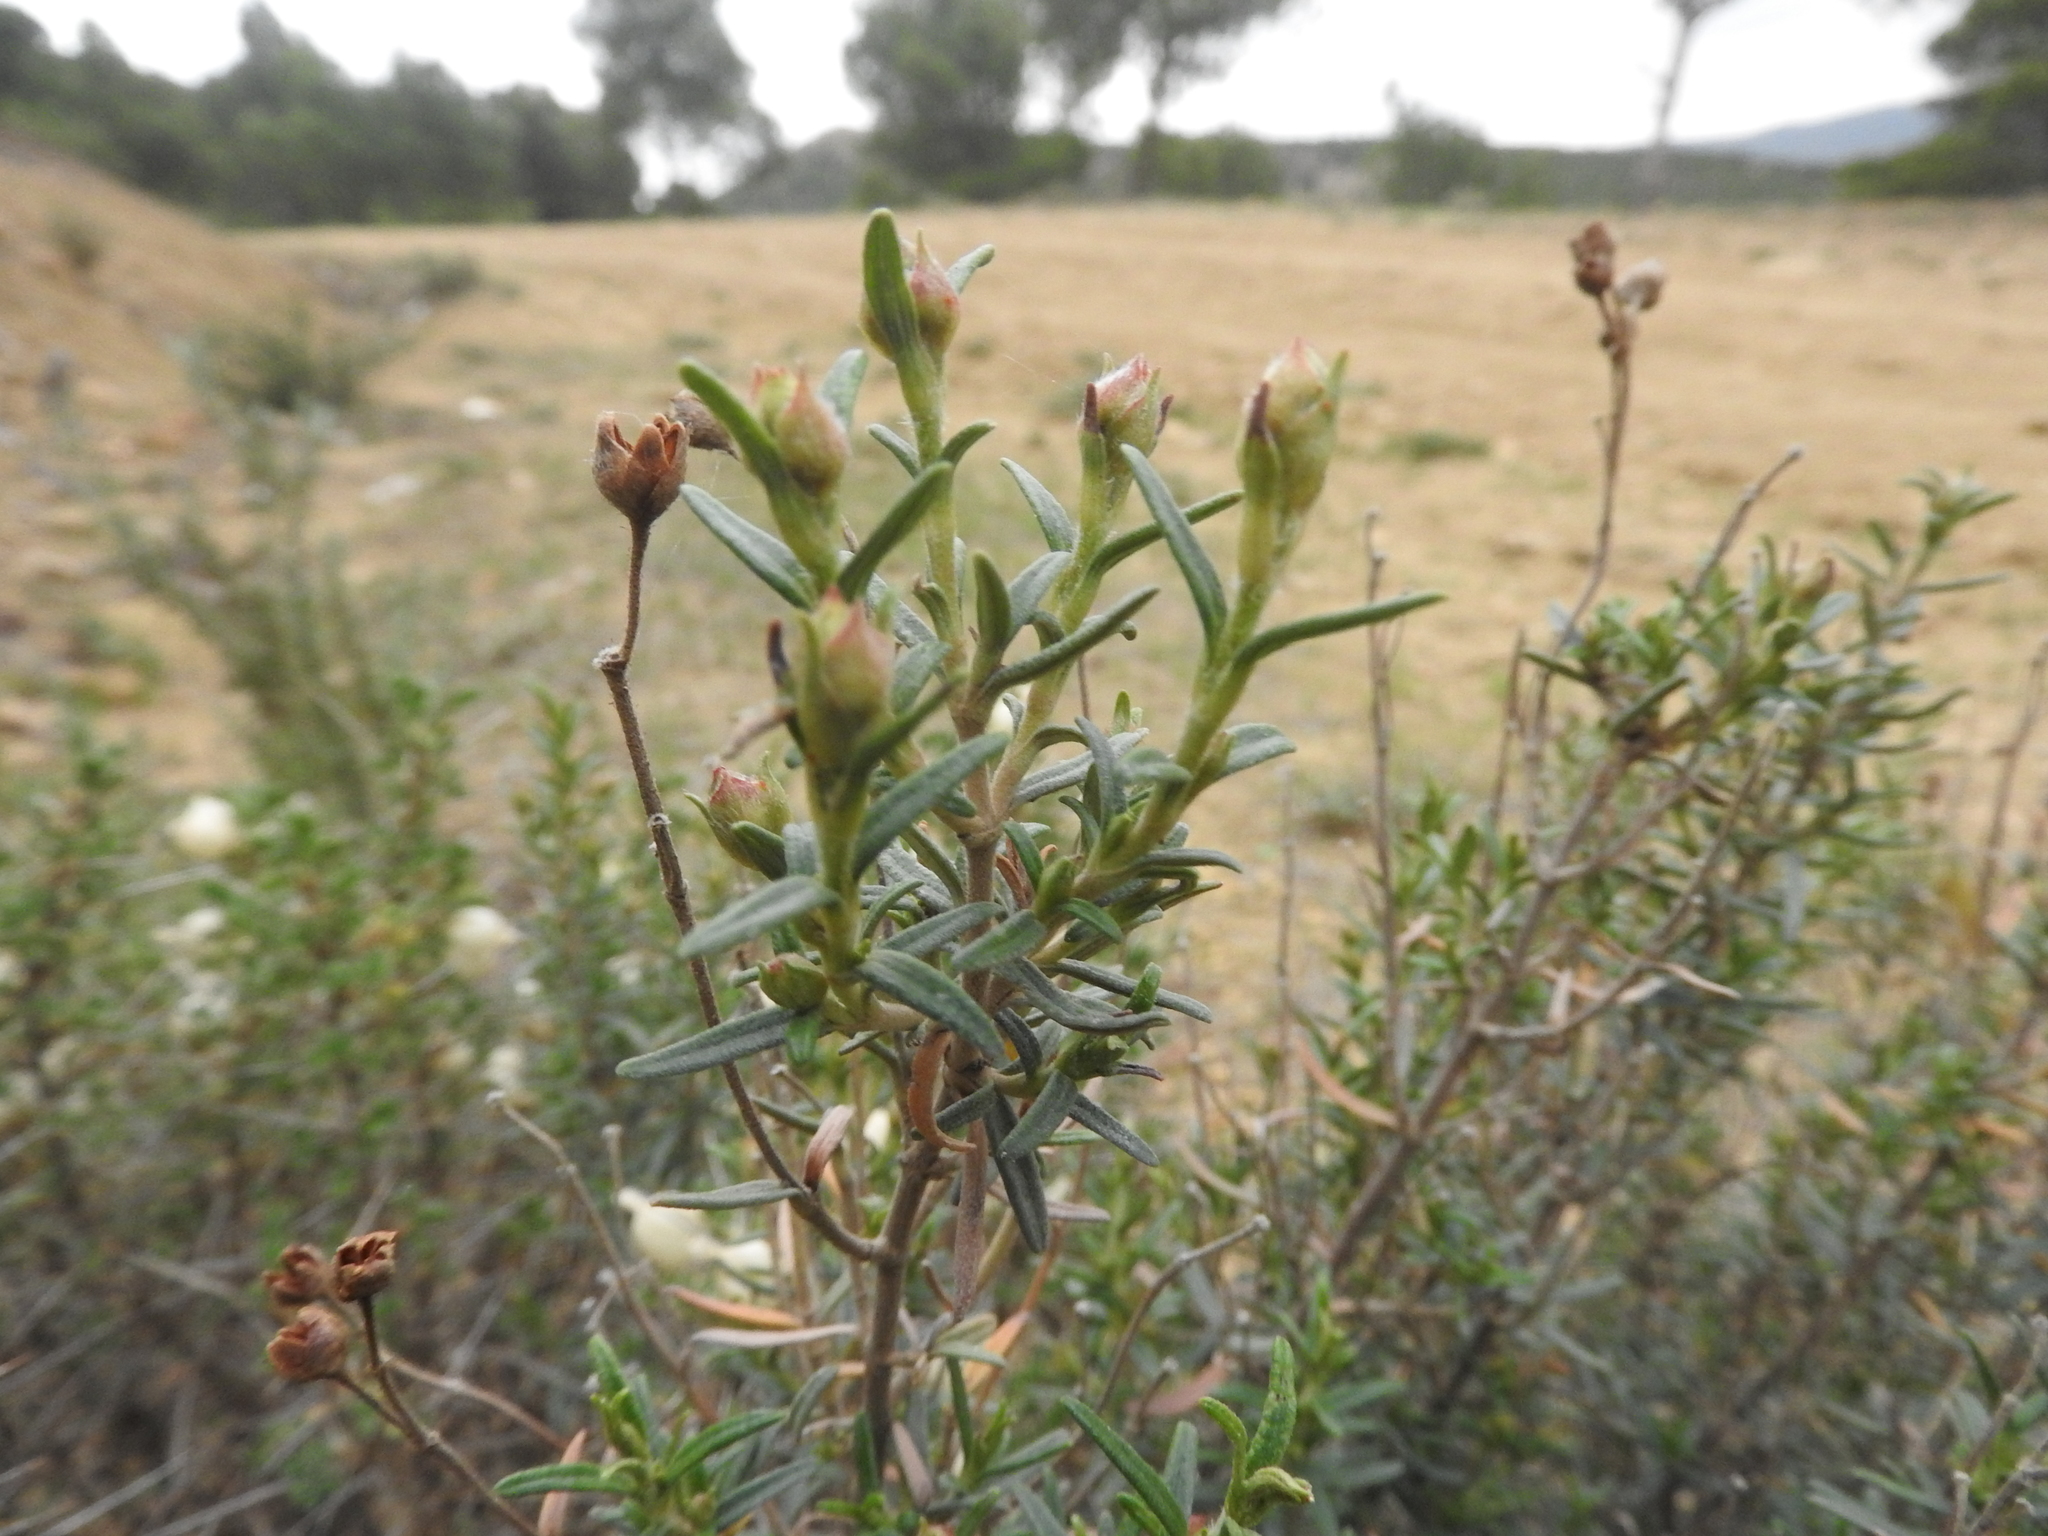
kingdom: Plantae
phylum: Tracheophyta
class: Magnoliopsida
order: Malvales
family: Cistaceae
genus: Cistus
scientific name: Cistus clusii
